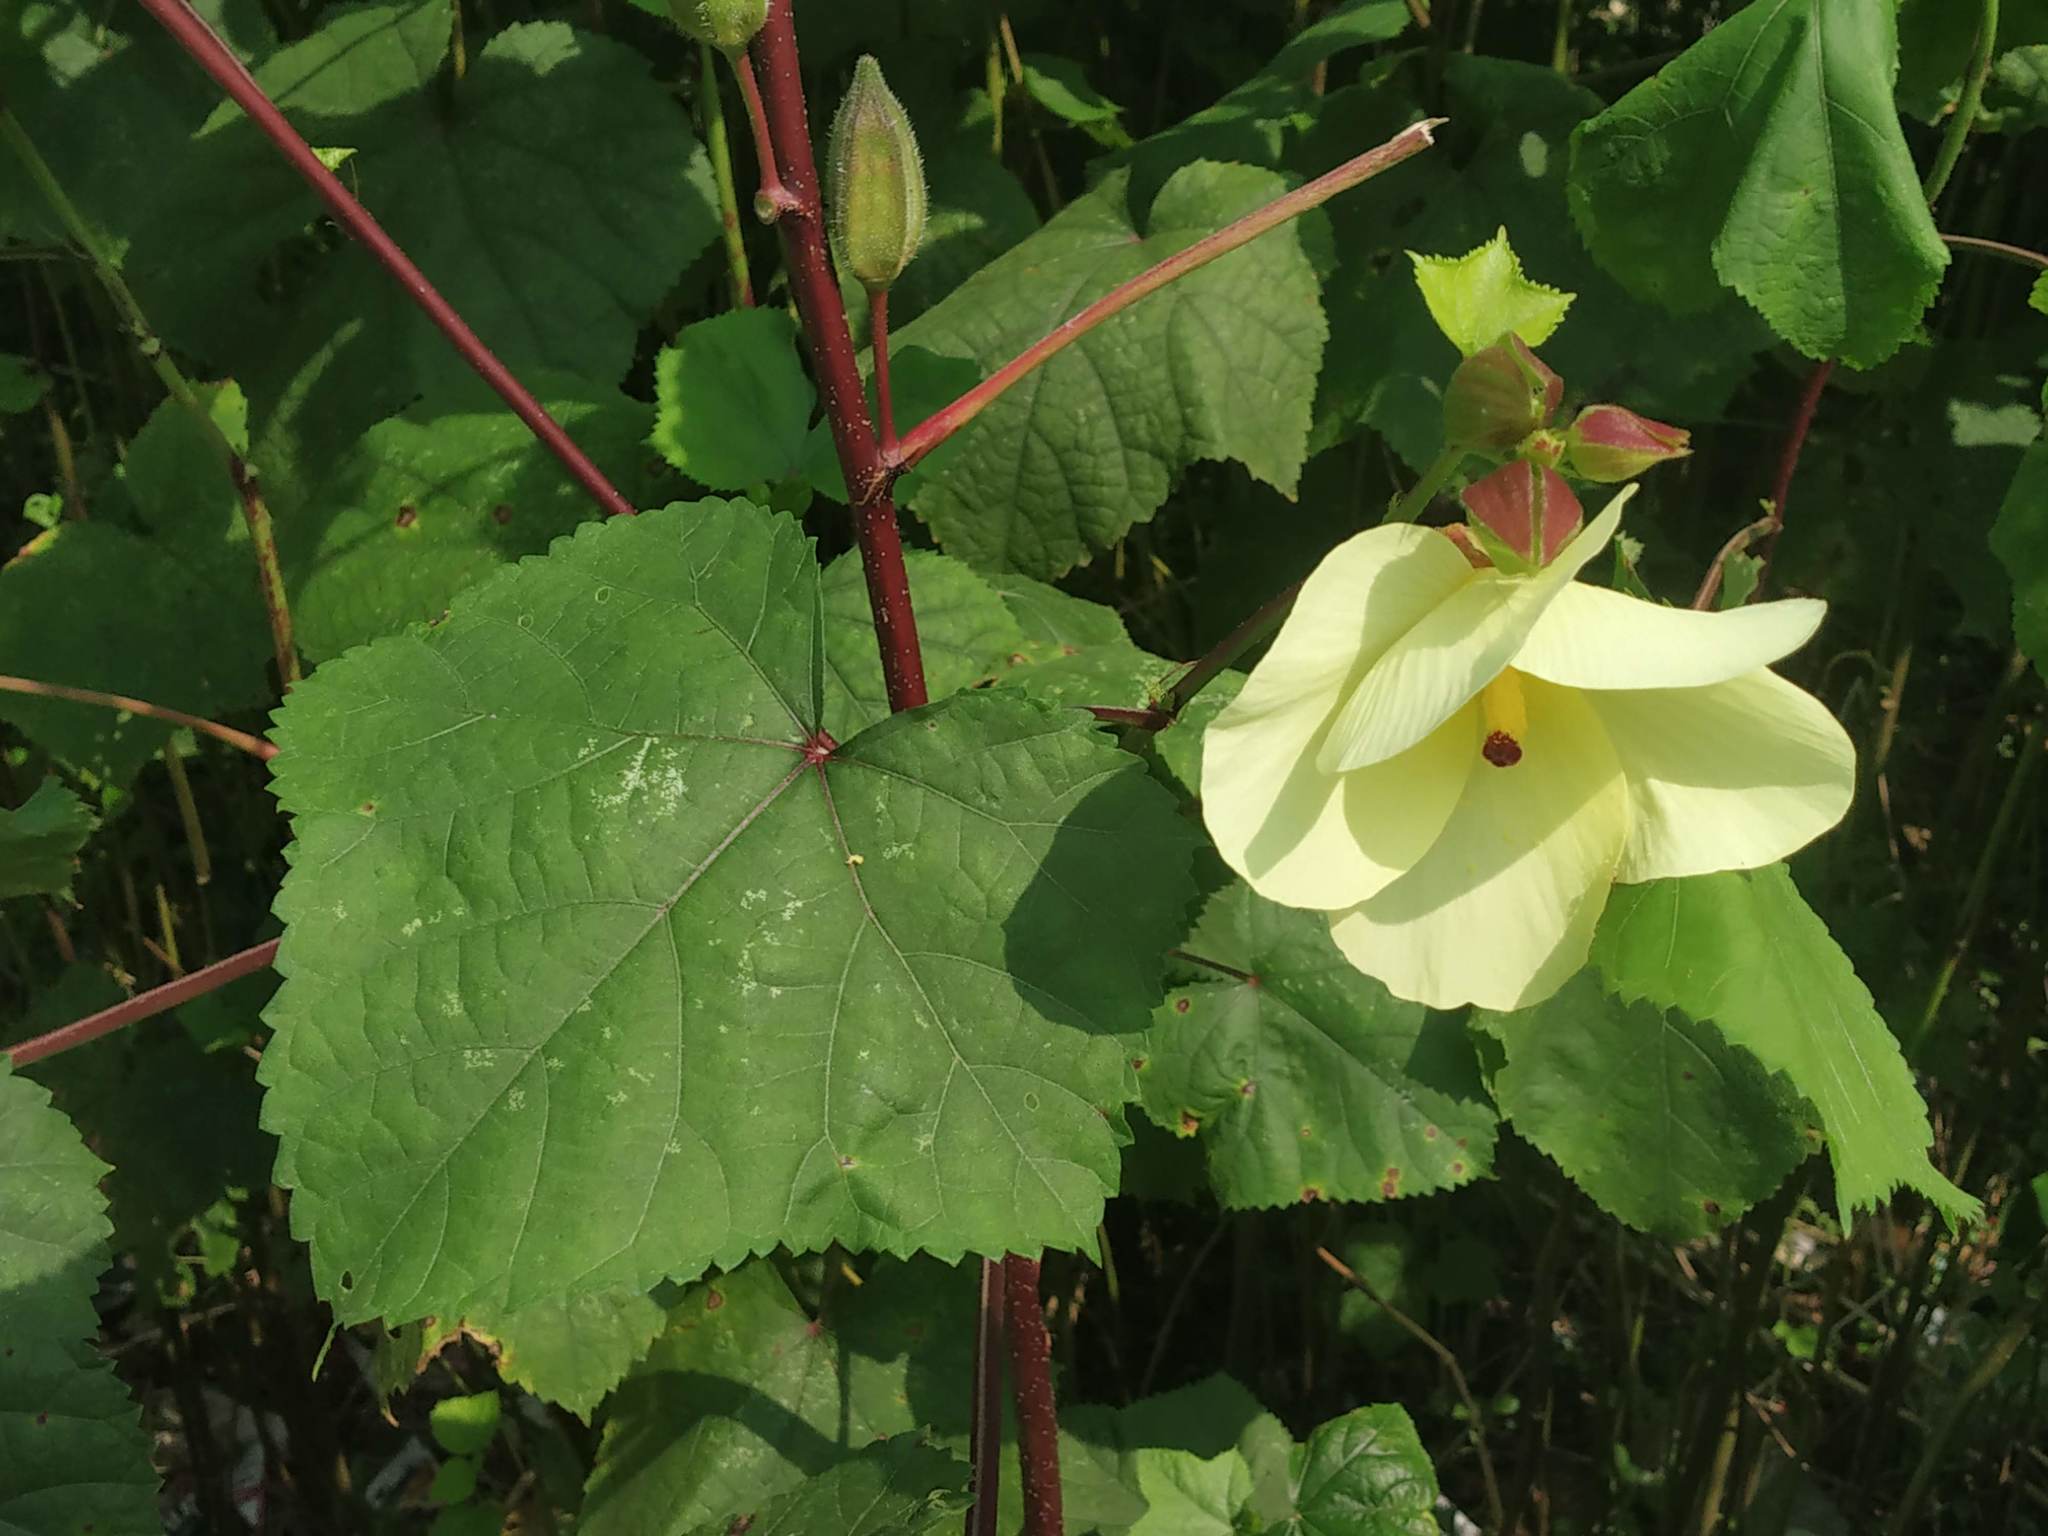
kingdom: Plantae
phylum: Tracheophyta
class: Magnoliopsida
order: Malvales
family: Malvaceae
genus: Abelmoschus
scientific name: Abelmoschus manihot
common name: Sunset muskmallow
